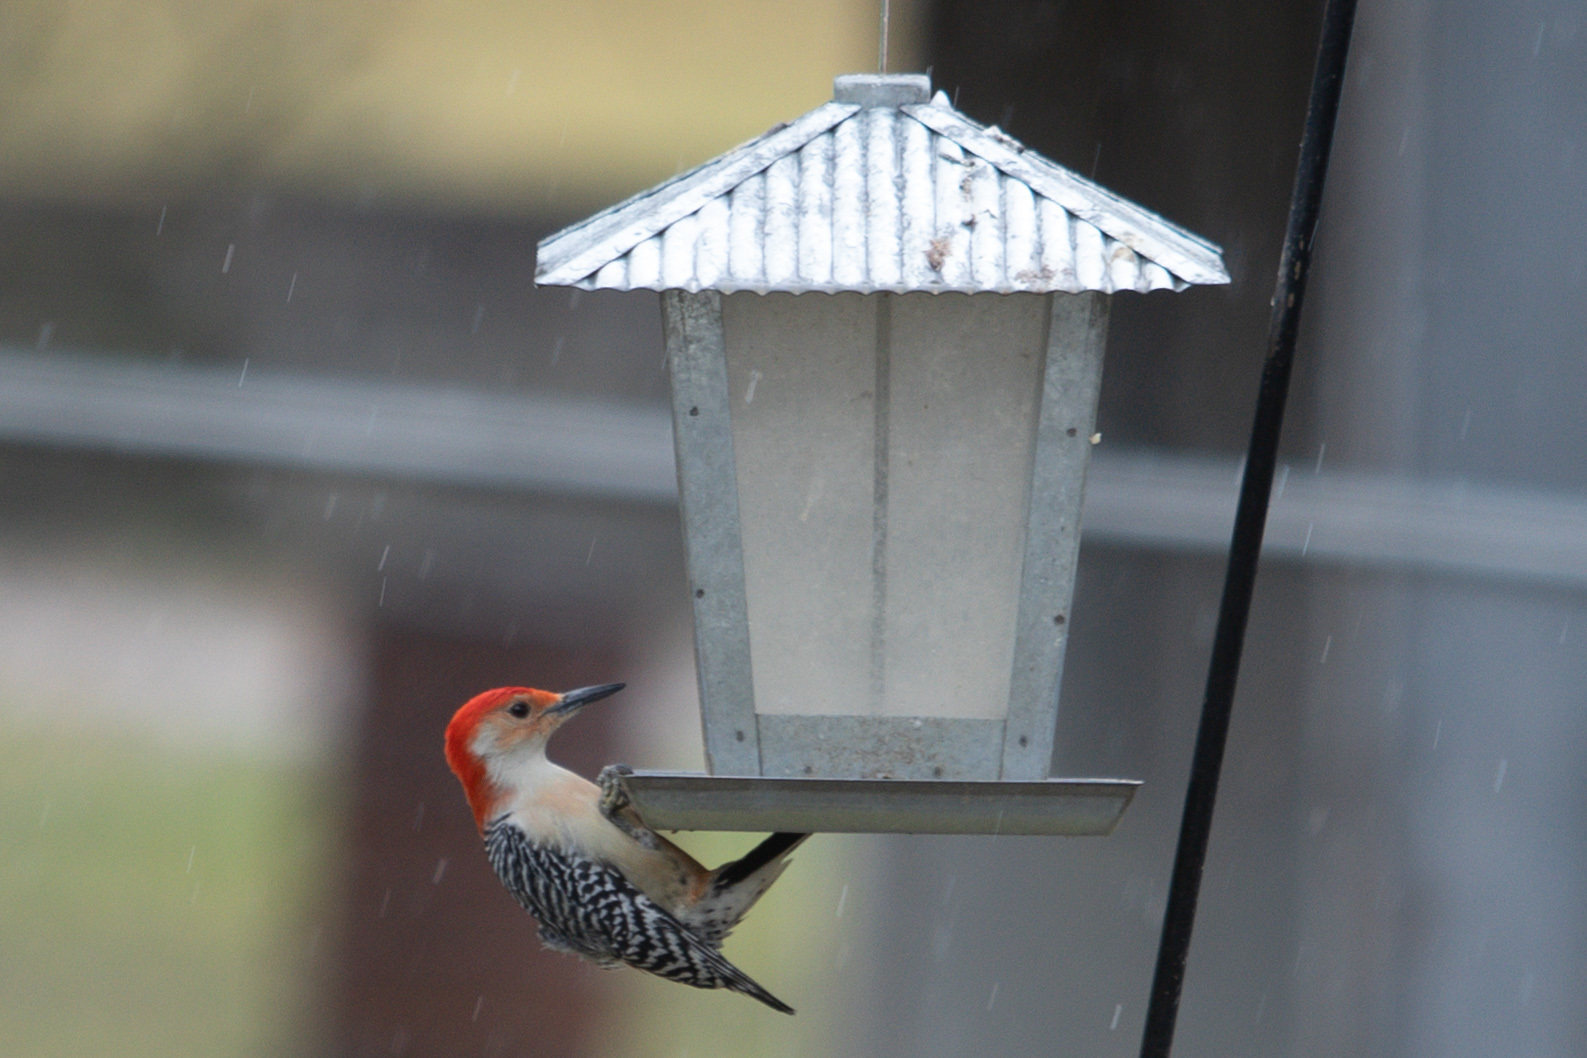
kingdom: Animalia
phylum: Chordata
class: Aves
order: Piciformes
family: Picidae
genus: Melanerpes
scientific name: Melanerpes carolinus
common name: Red-bellied woodpecker
